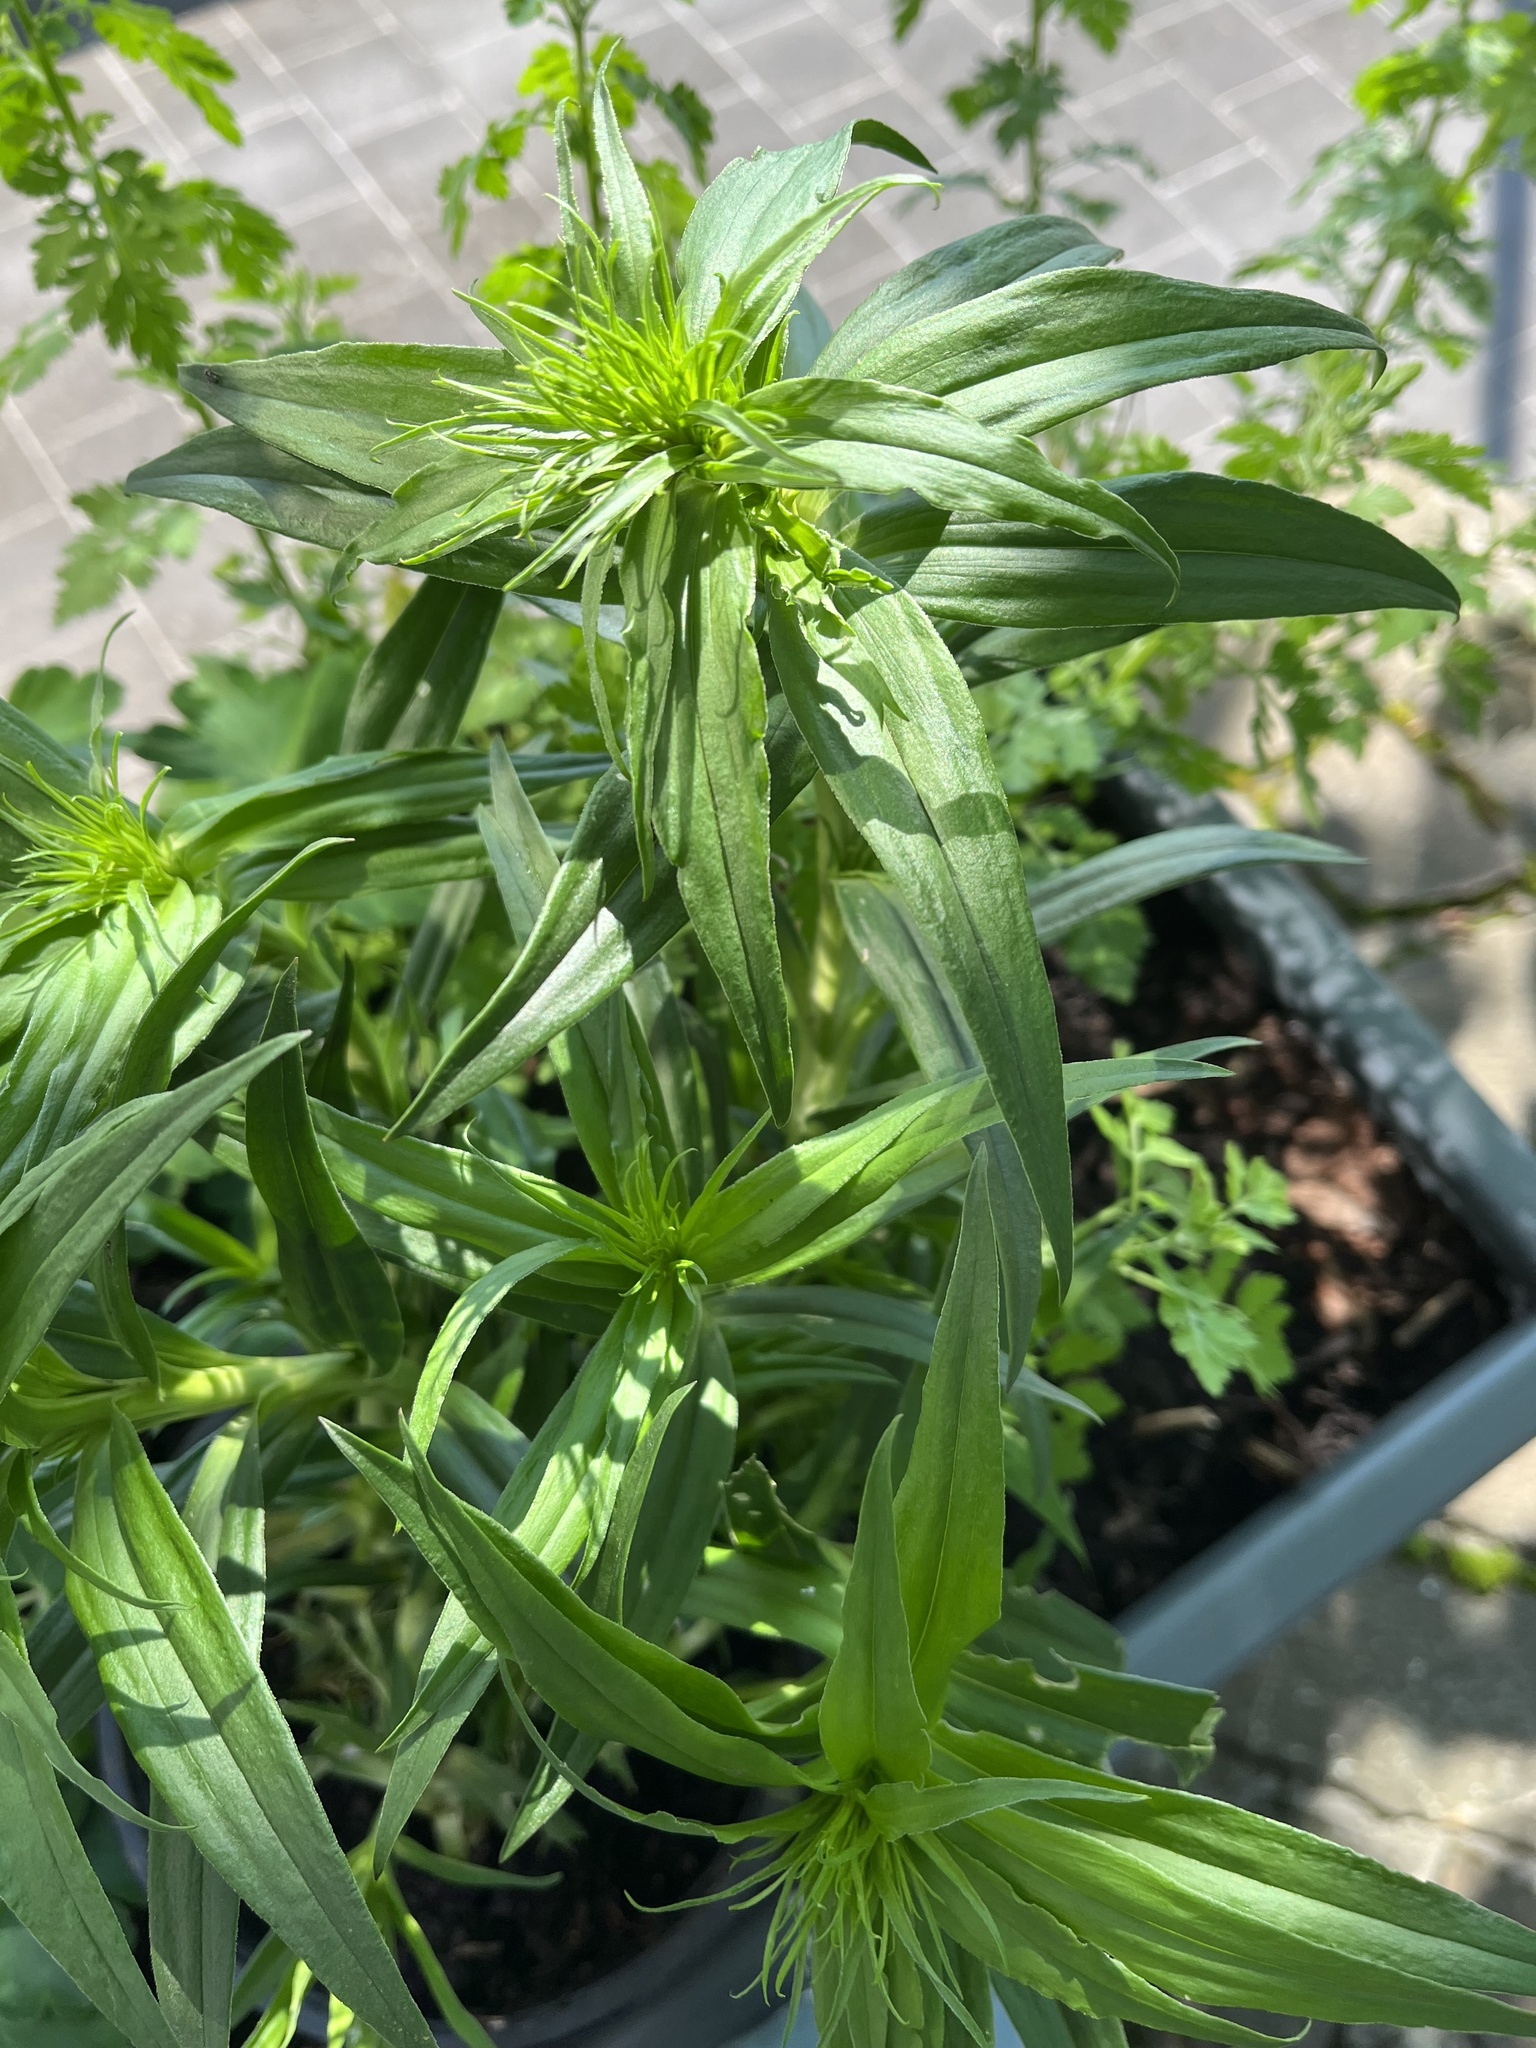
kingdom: Plantae
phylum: Tracheophyta
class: Magnoliopsida
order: Caryophyllales
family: Caryophyllaceae
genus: Dianthus
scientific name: Dianthus barbatus
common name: Sweet-william
